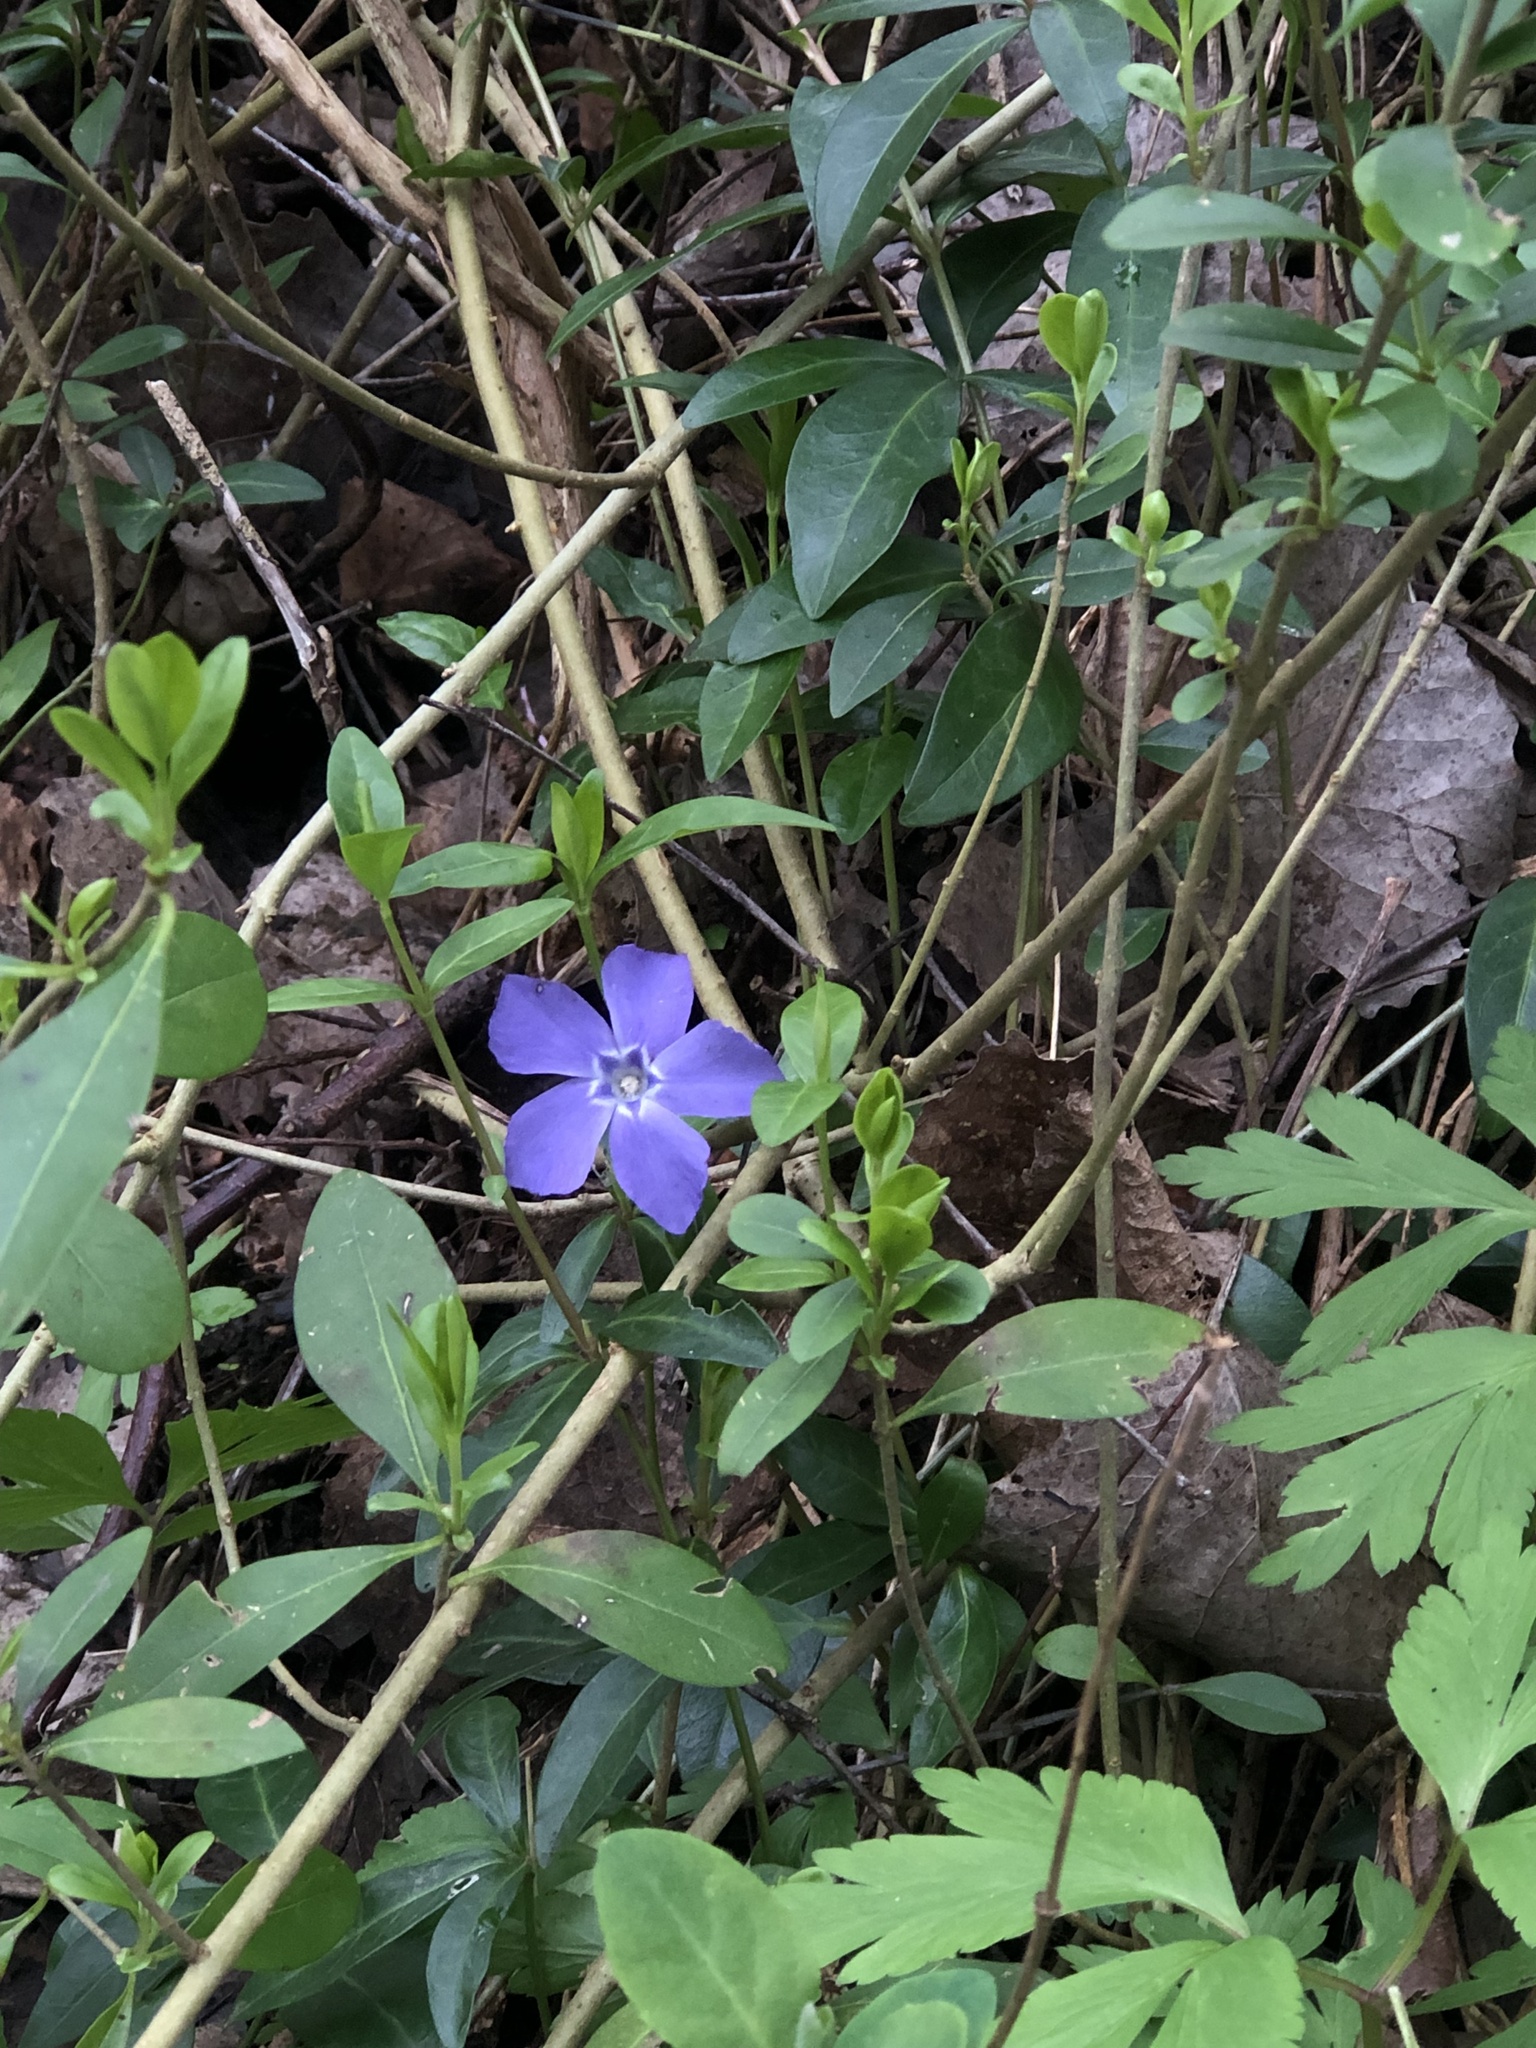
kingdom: Plantae
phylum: Tracheophyta
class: Magnoliopsida
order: Gentianales
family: Apocynaceae
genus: Vinca
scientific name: Vinca minor
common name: Lesser periwinkle
